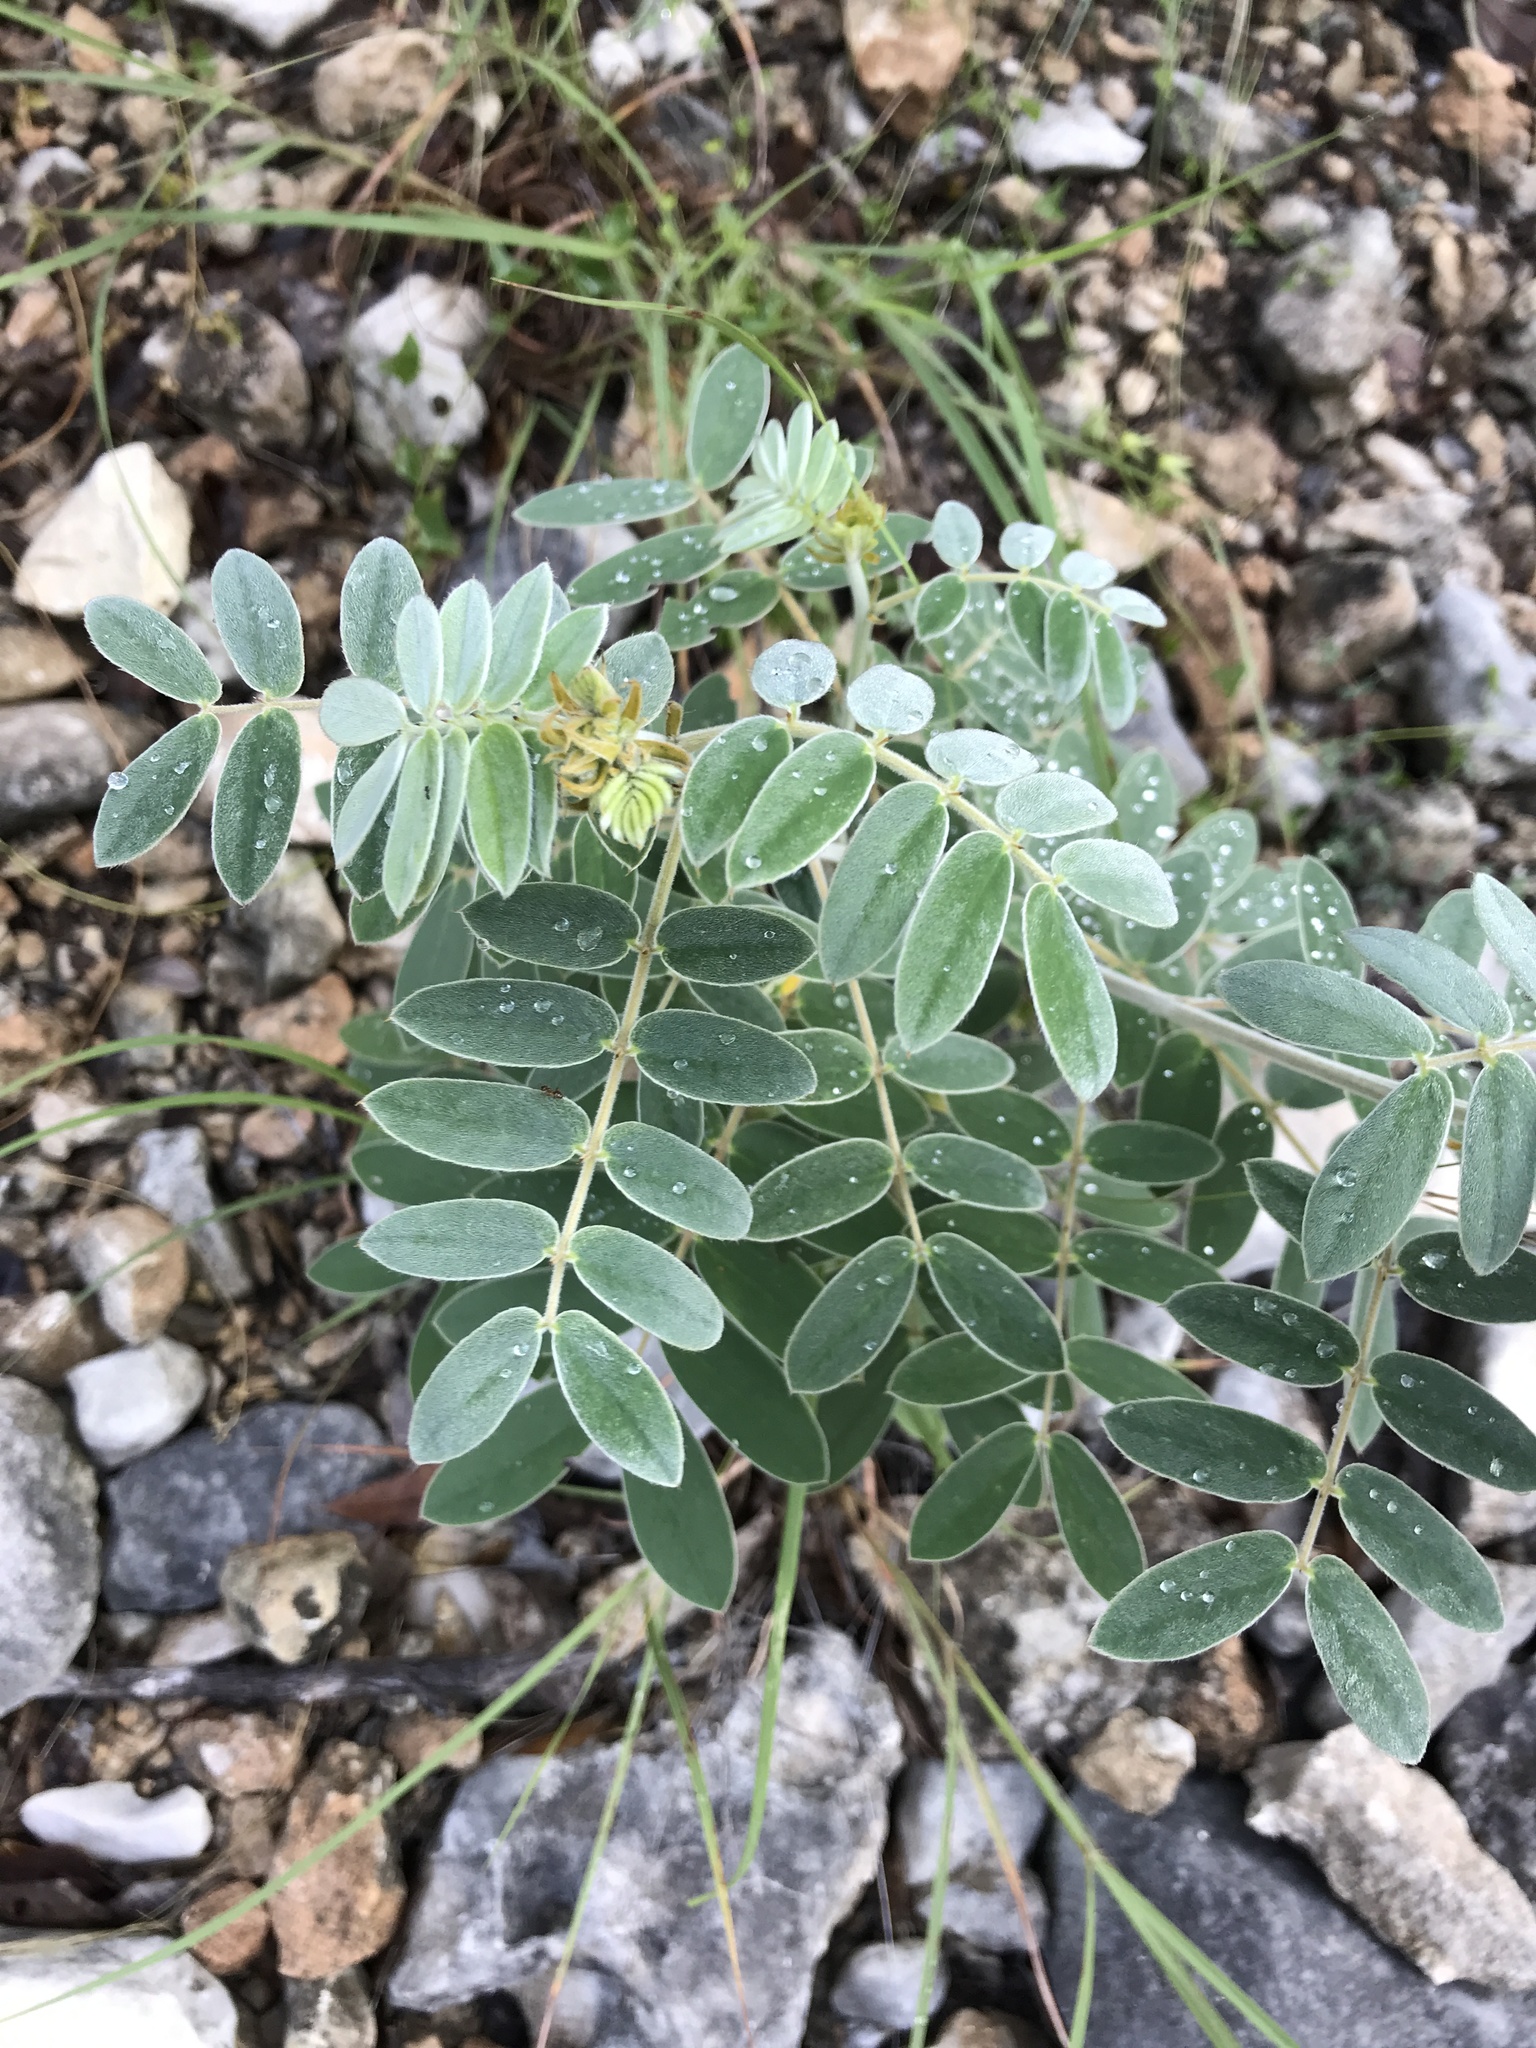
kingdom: Plantae
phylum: Tracheophyta
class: Magnoliopsida
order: Fabales
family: Fabaceae
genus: Senna
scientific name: Senna lindheimeriana
